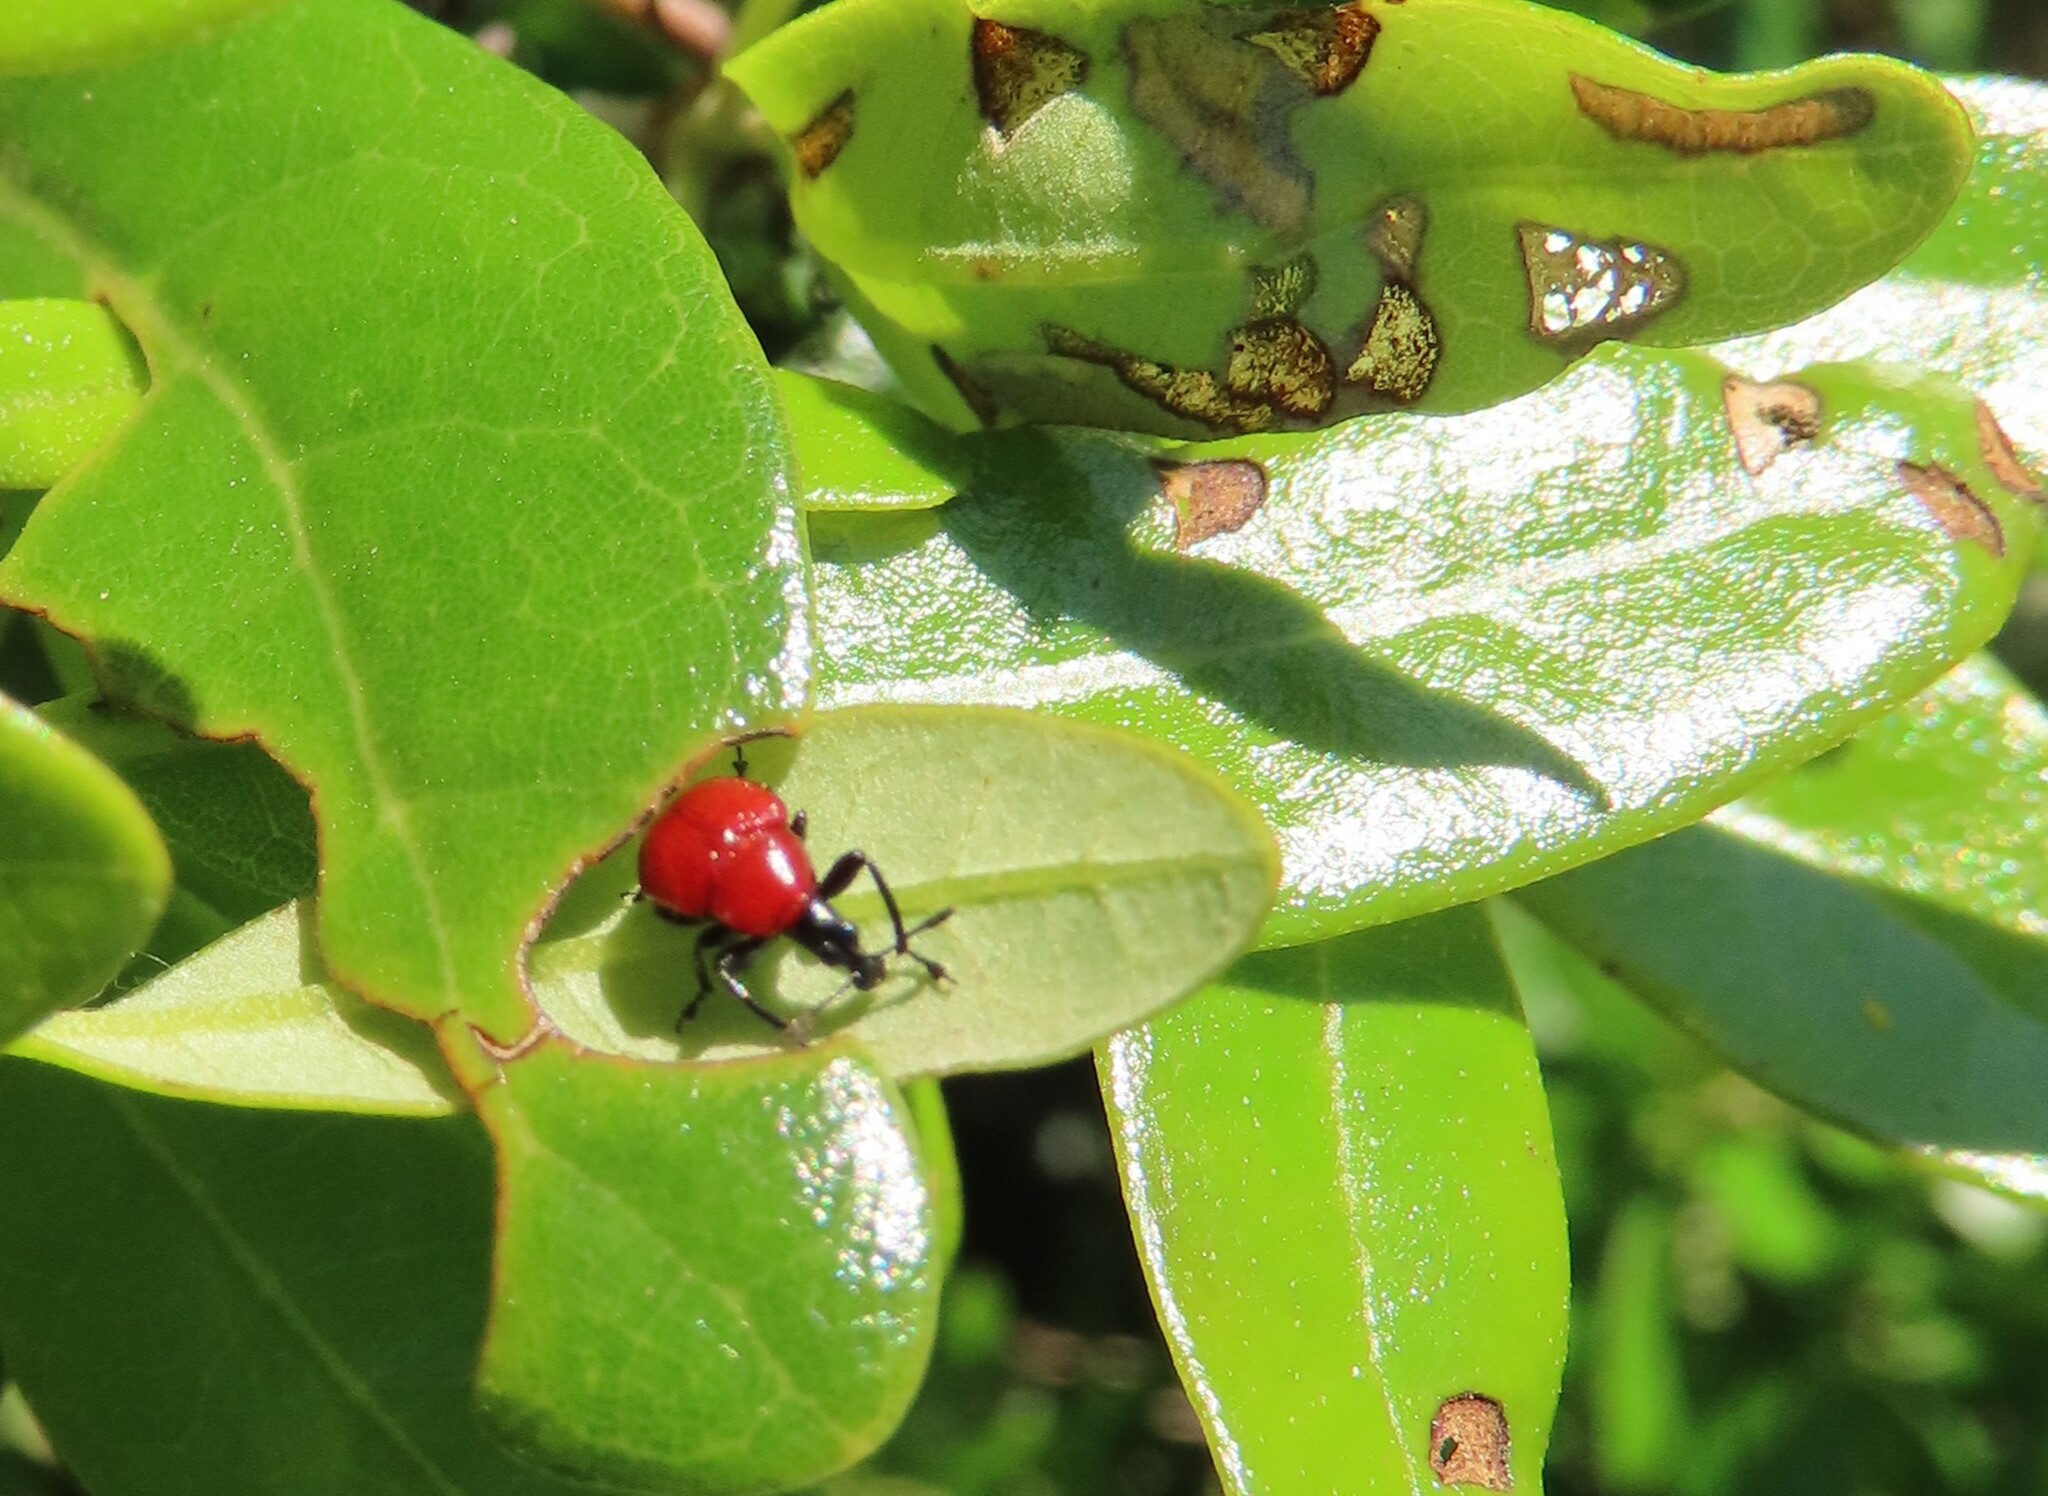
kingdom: Animalia
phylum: Arthropoda
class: Insecta
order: Coleoptera
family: Attelabidae
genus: Homoeolabus
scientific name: Homoeolabus analis
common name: Oak leaf rolling weevil
